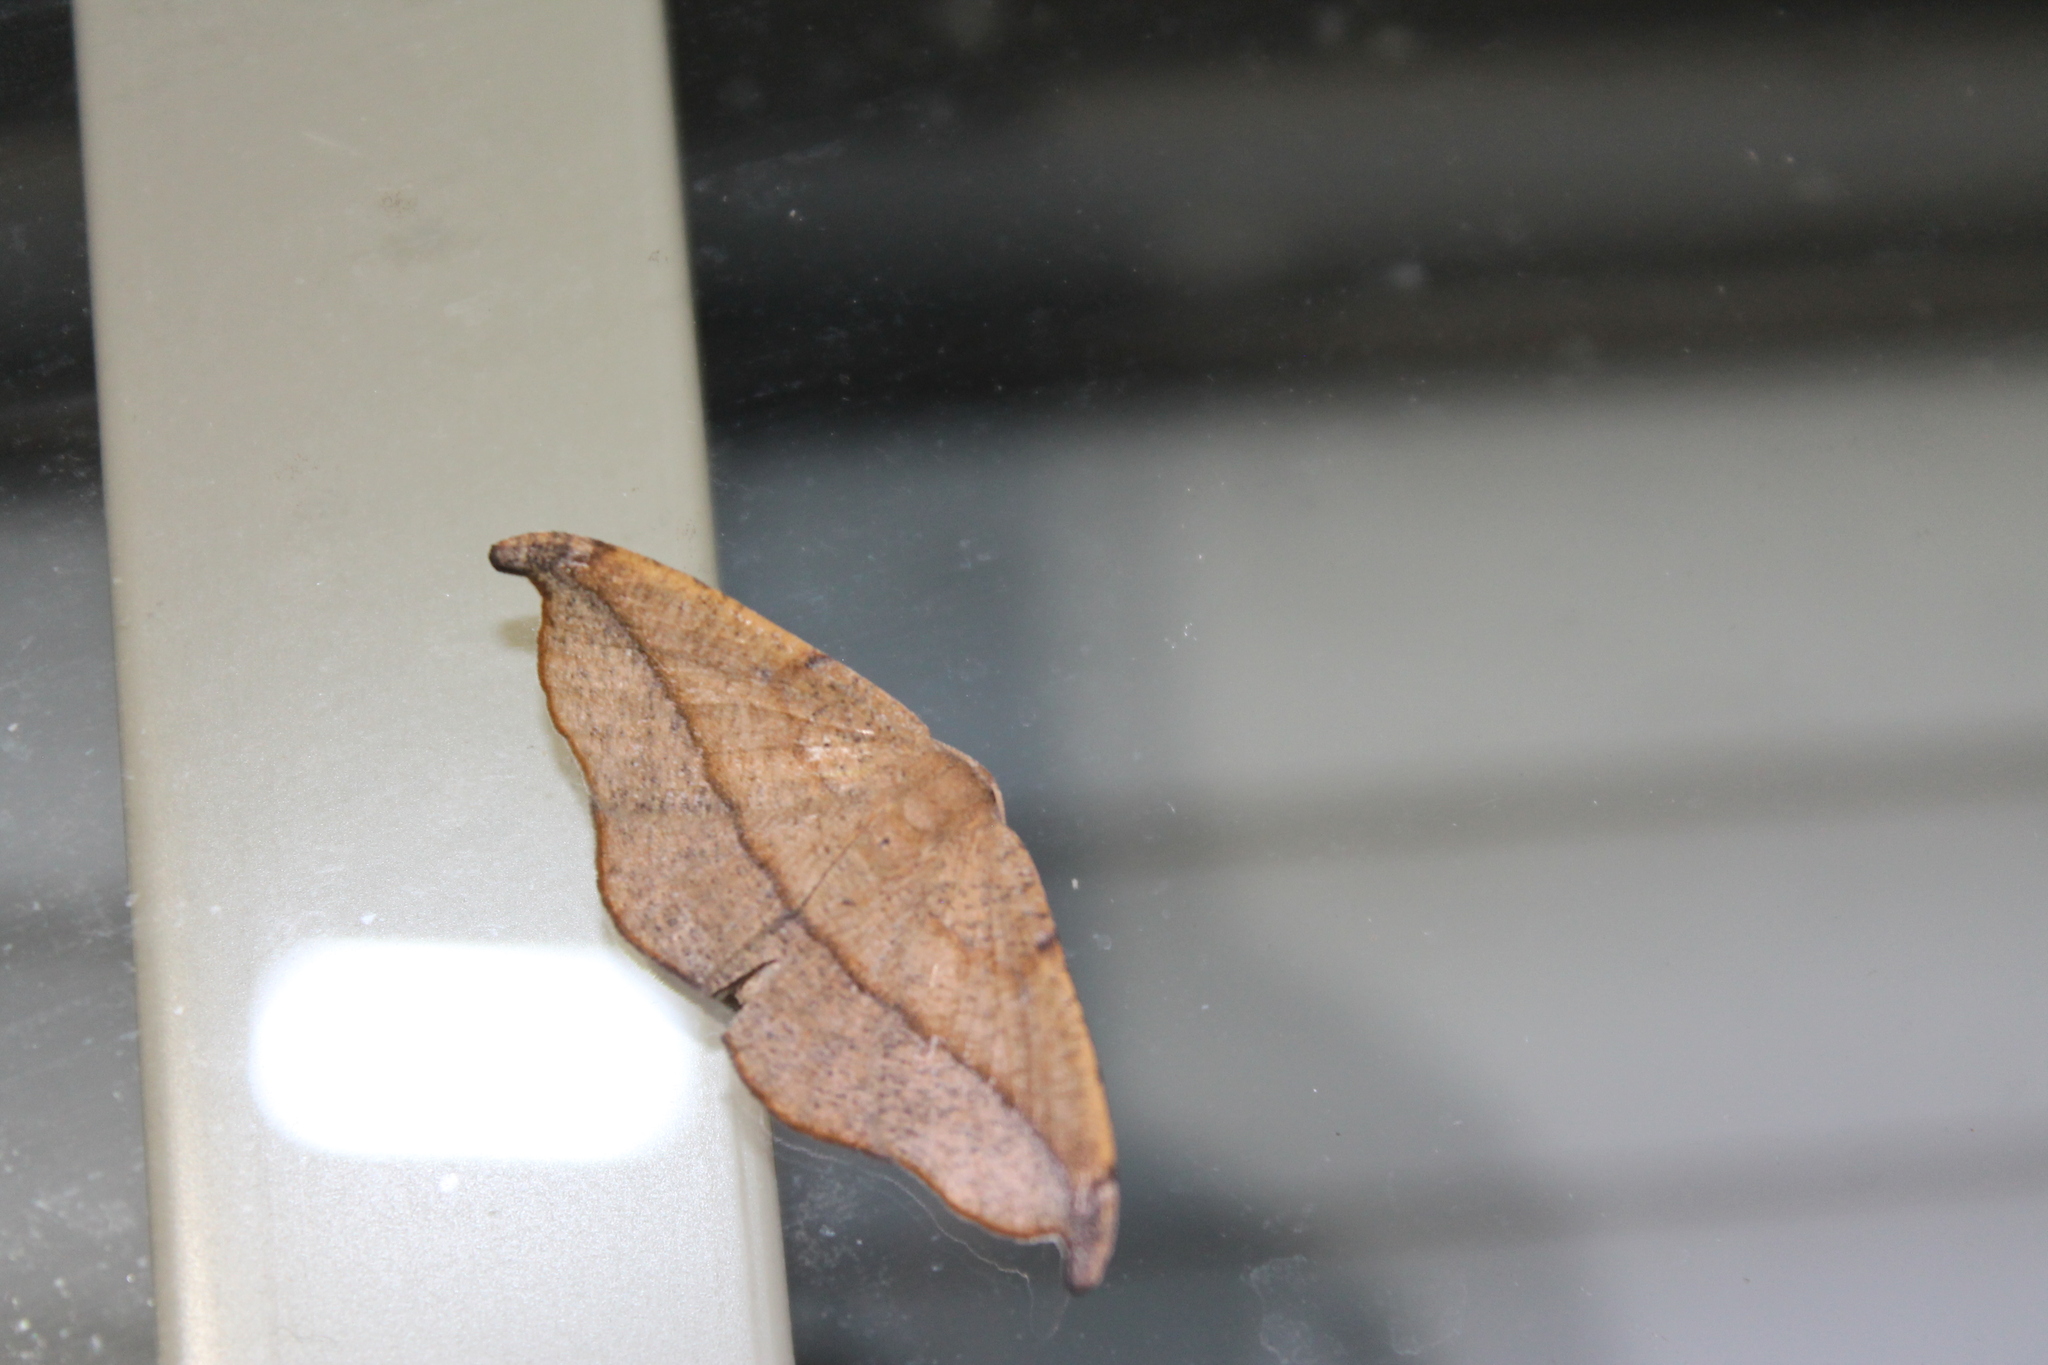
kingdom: Animalia
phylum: Arthropoda
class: Insecta
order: Lepidoptera
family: Geometridae
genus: Patalene
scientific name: Patalene olyzonaria
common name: Juniper geometer moth
